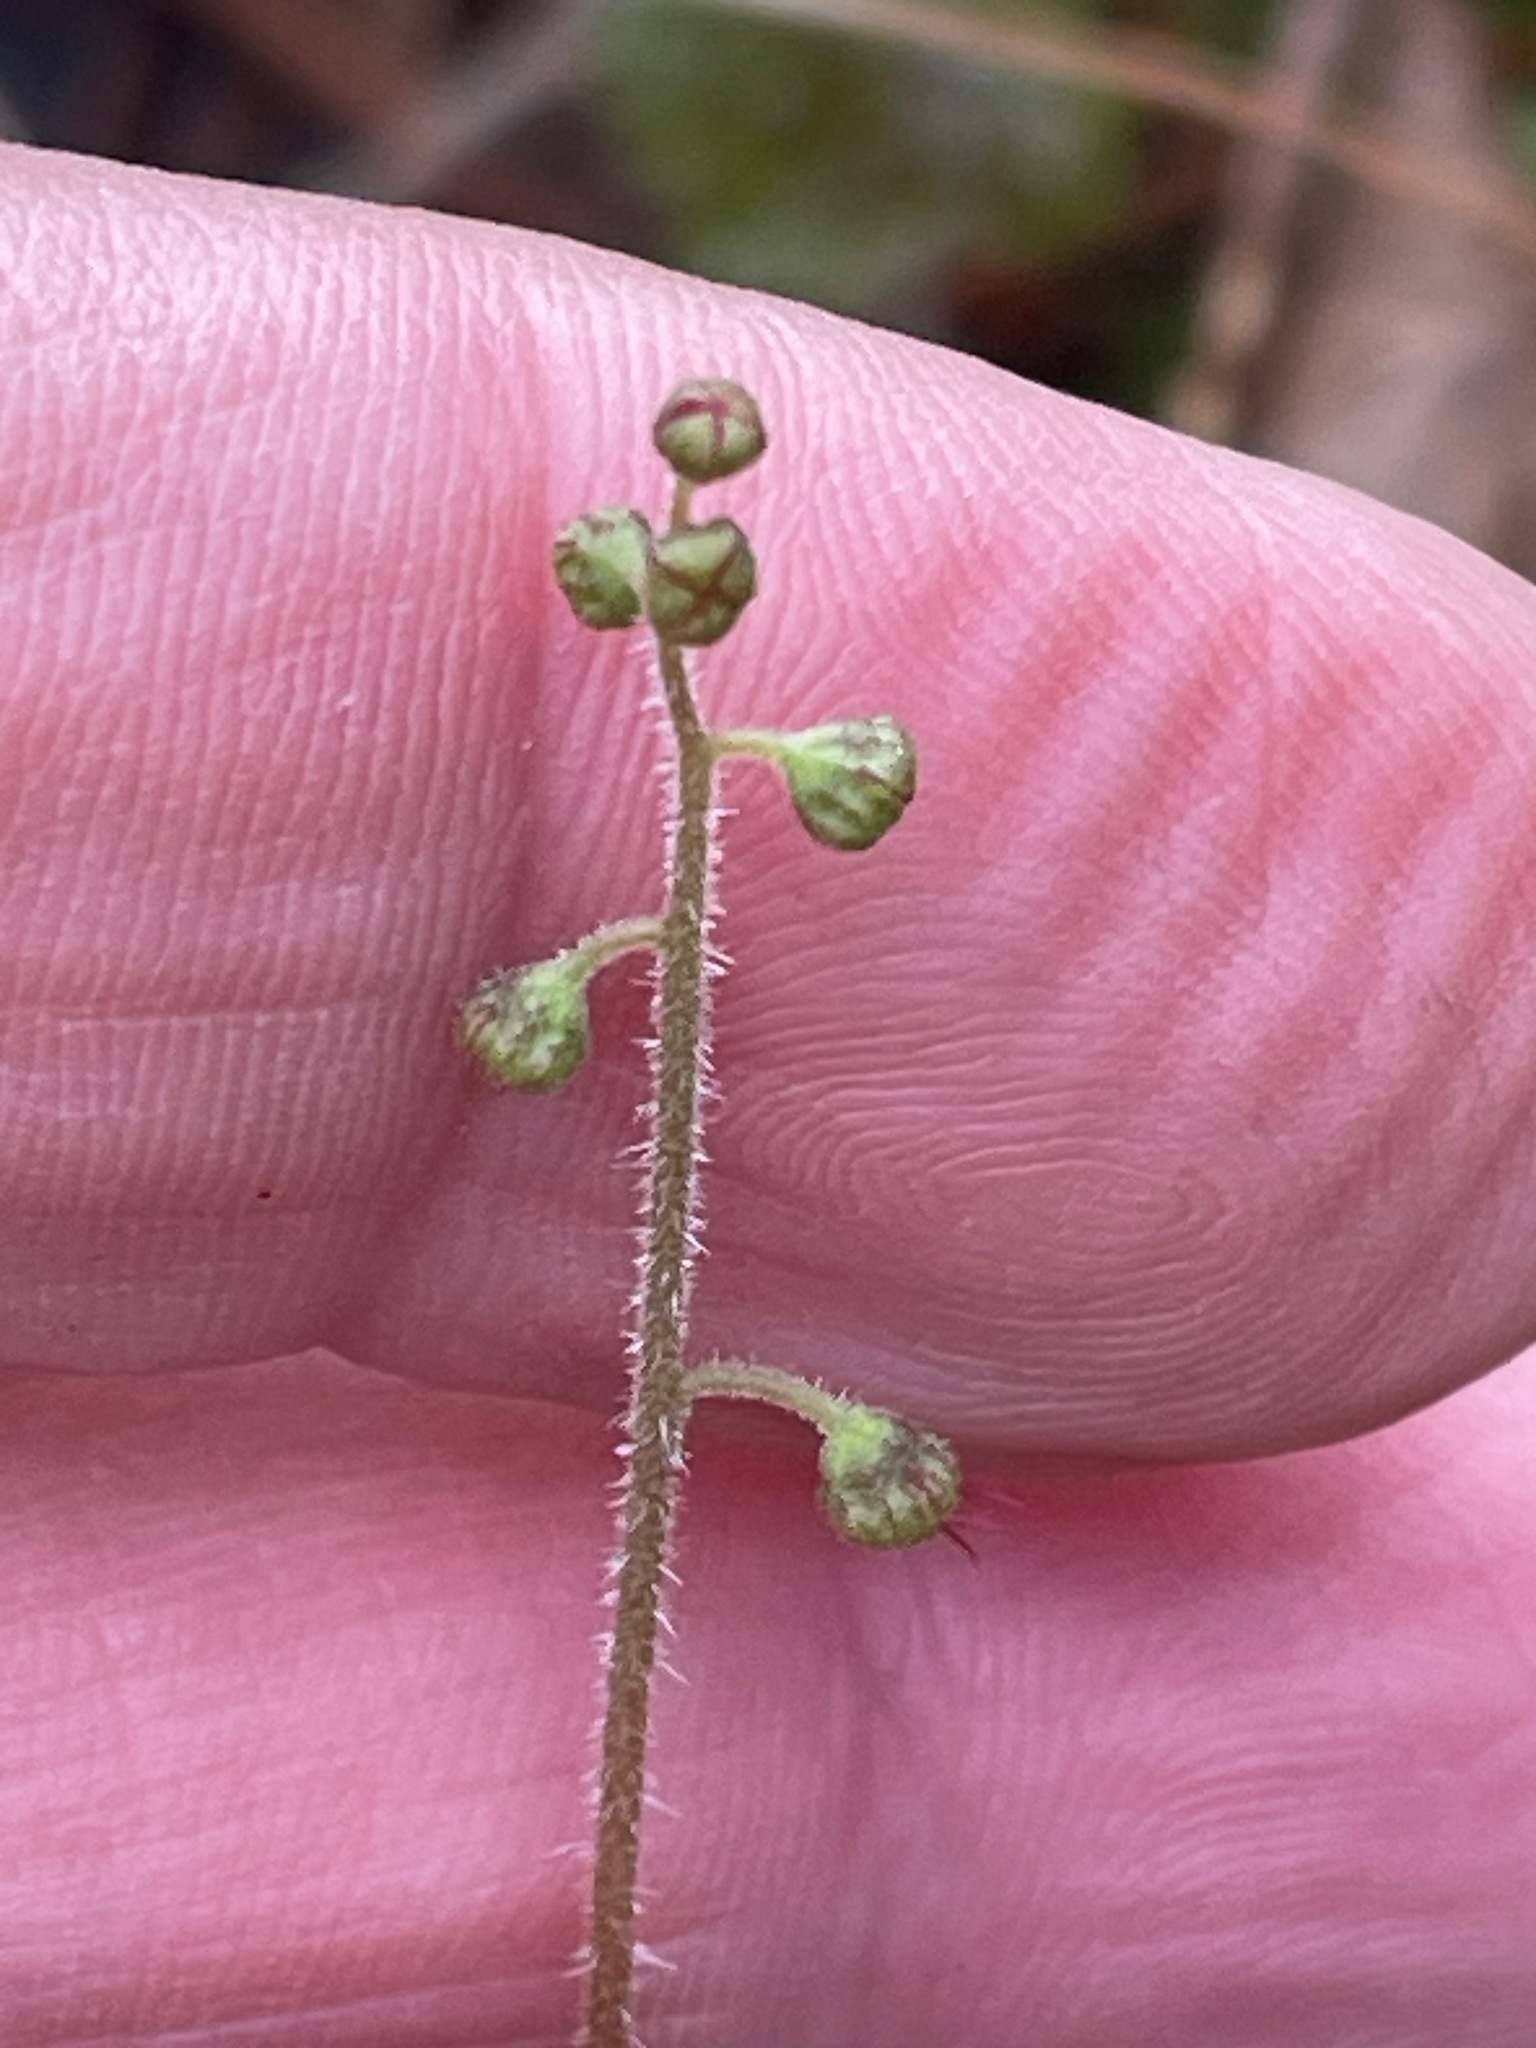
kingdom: Plantae
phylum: Tracheophyta
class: Magnoliopsida
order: Saxifragales
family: Saxifragaceae
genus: Mitella
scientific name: Mitella nuda
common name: Bare-stemmed bishop's-cap
